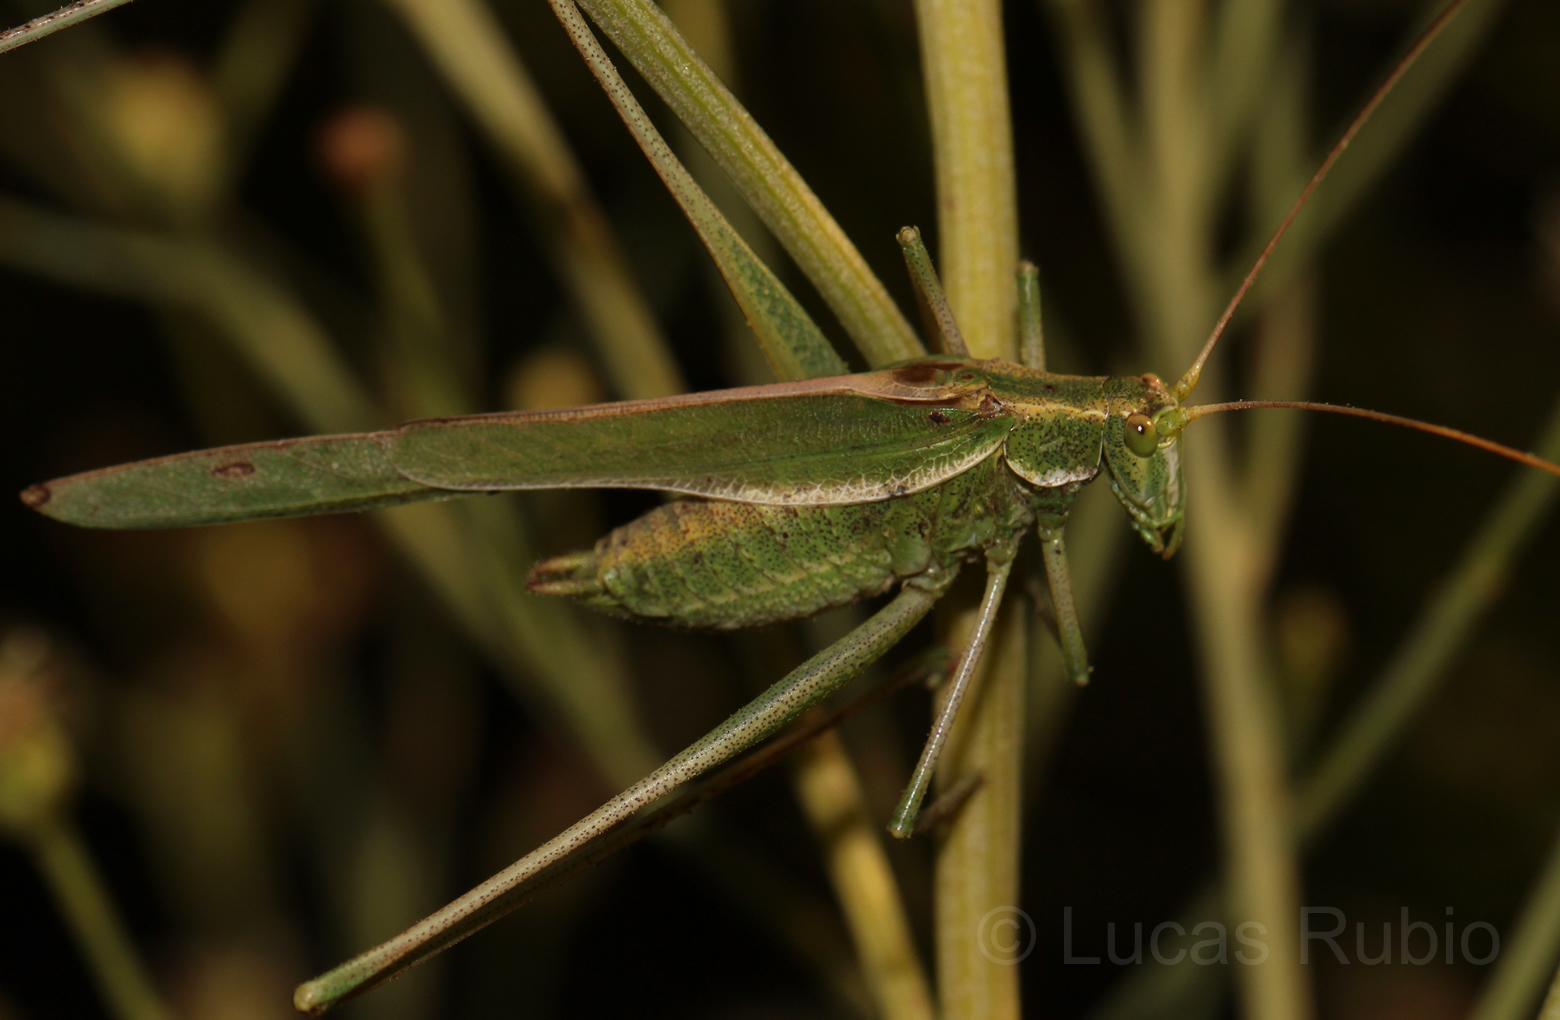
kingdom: Animalia
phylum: Arthropoda
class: Insecta
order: Orthoptera
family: Tettigoniidae
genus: Burgilis
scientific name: Burgilis curta
